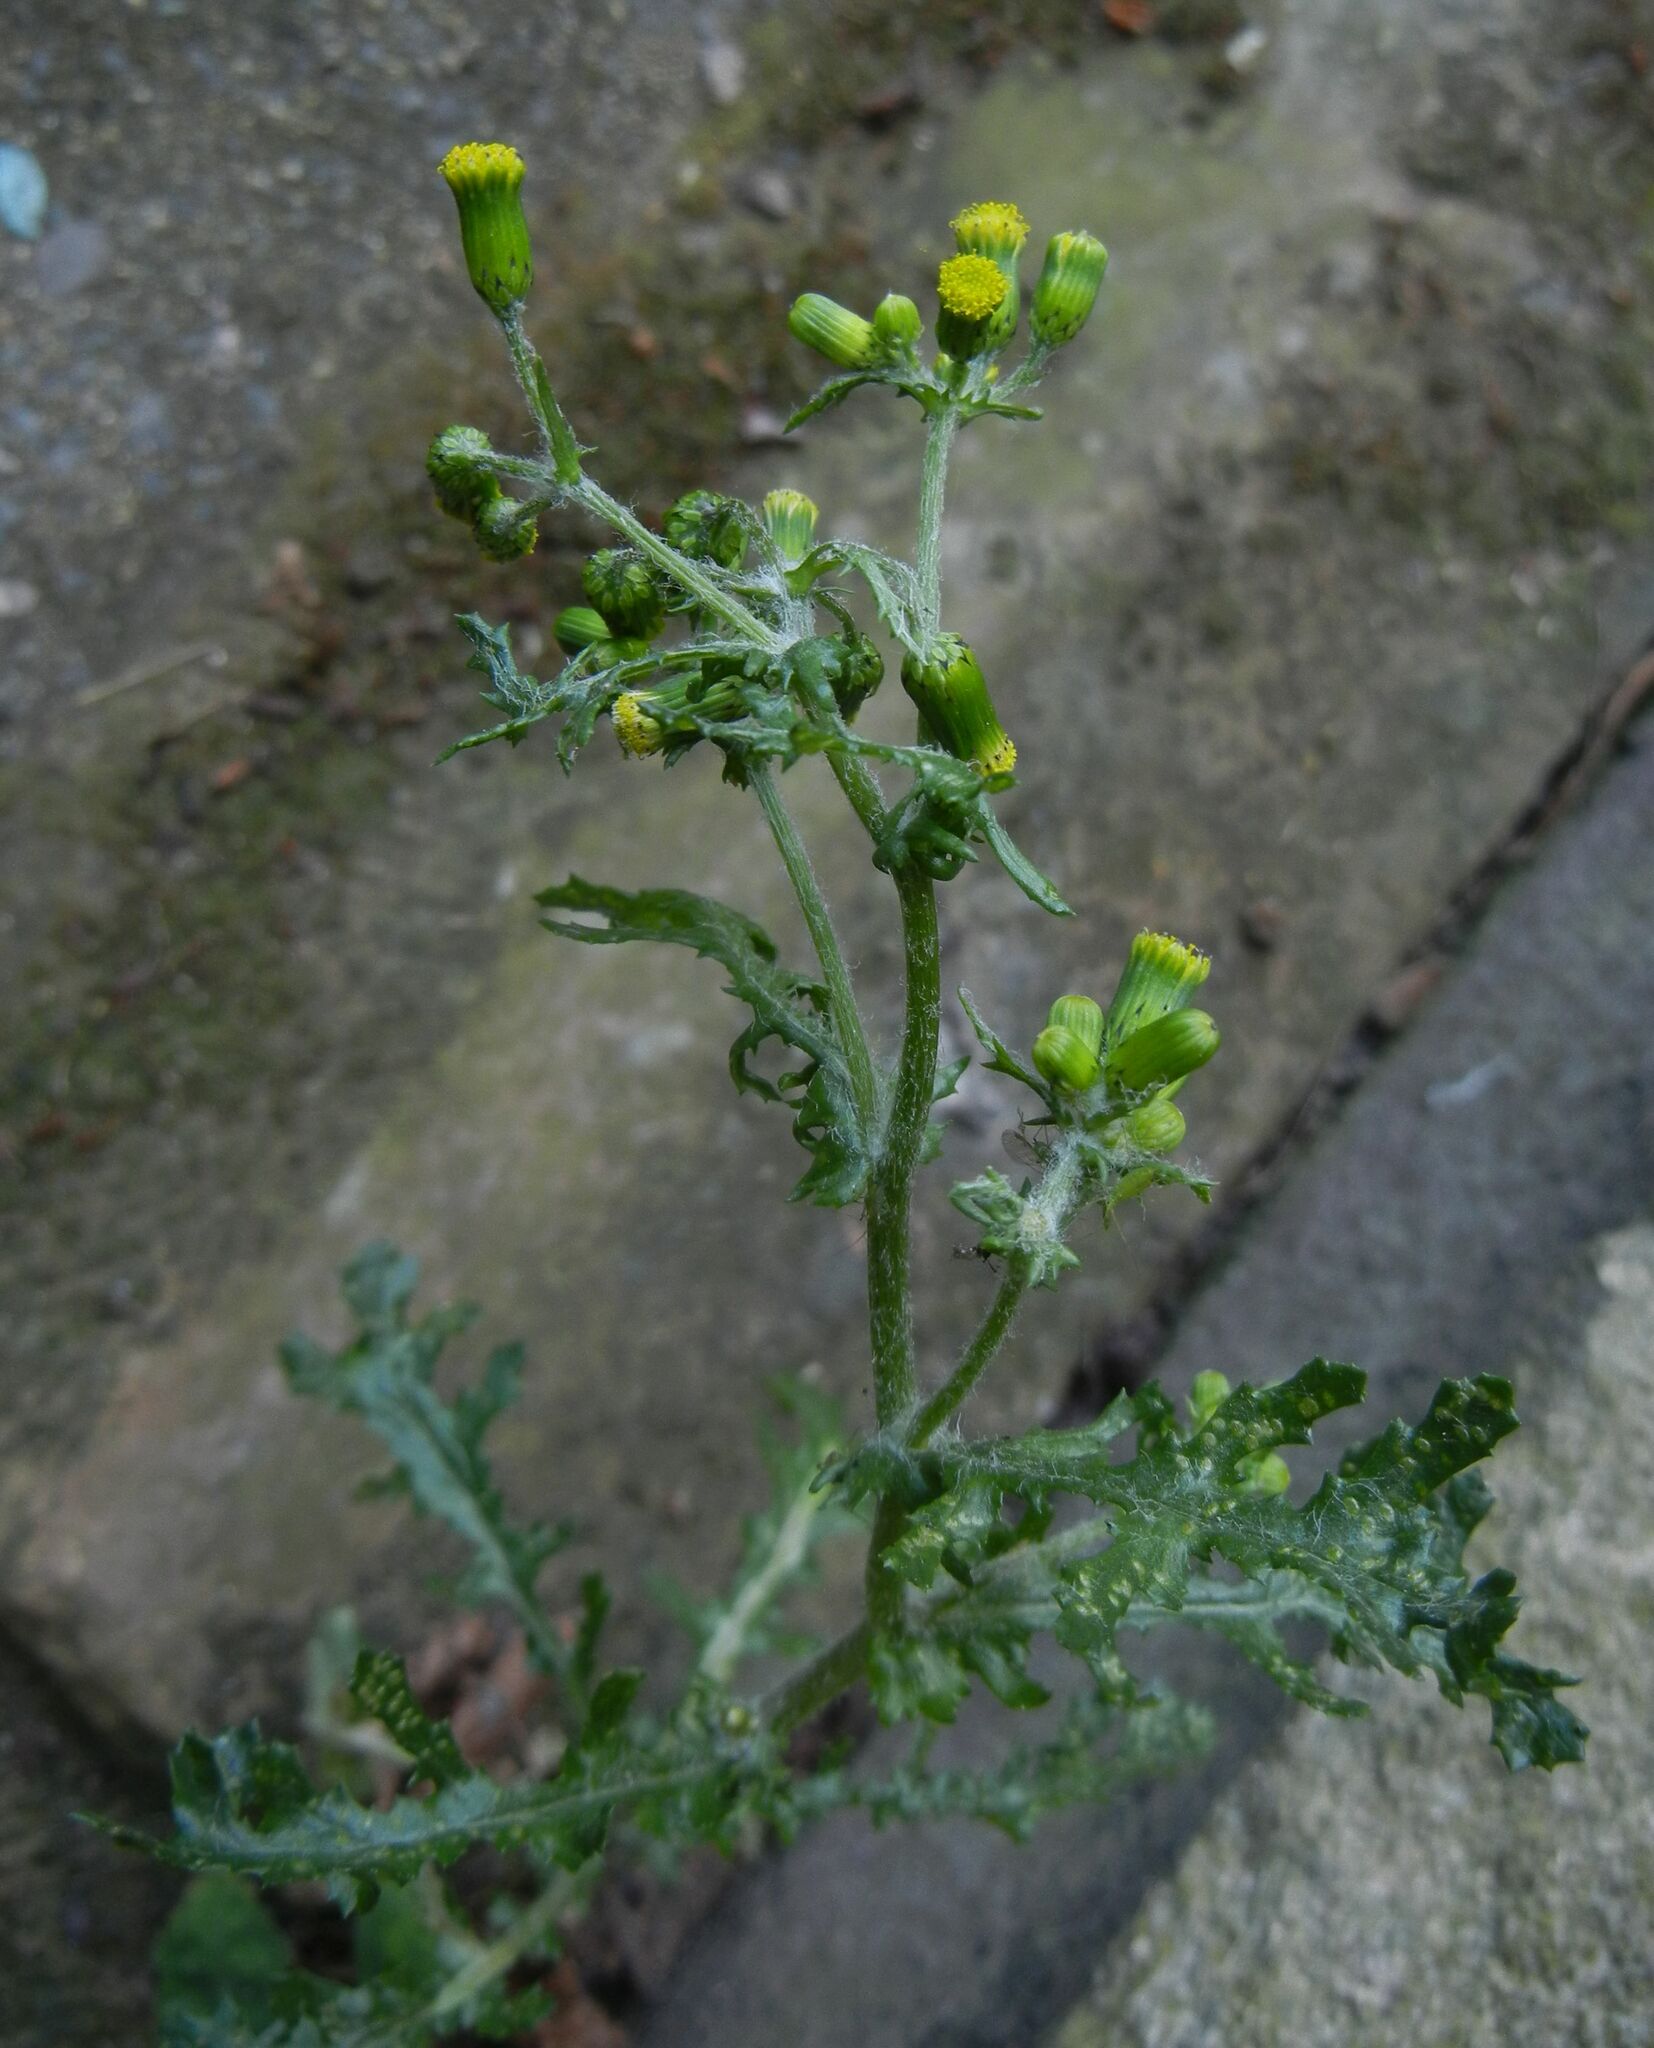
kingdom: Plantae
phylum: Tracheophyta
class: Magnoliopsida
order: Asterales
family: Asteraceae
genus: Senecio
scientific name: Senecio vulgaris
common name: Old-man-in-the-spring
